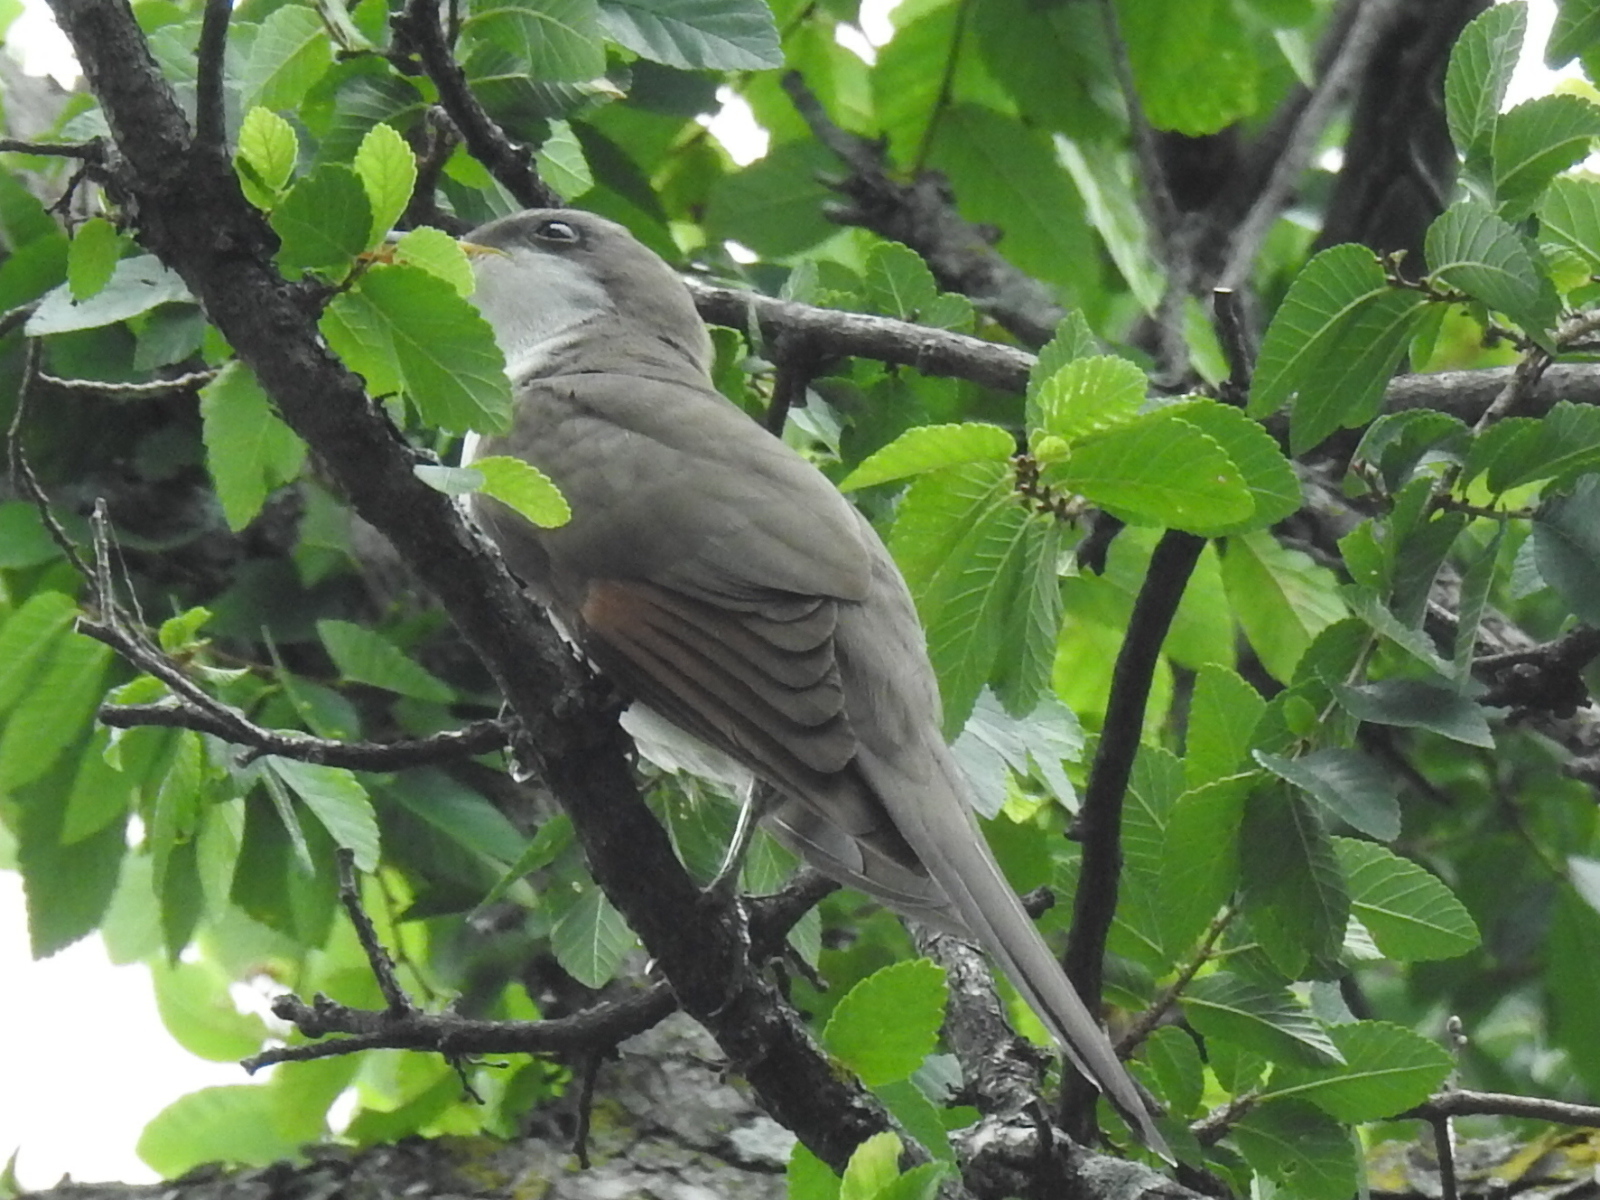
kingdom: Animalia
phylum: Chordata
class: Aves
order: Cuculiformes
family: Cuculidae
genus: Coccyzus
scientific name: Coccyzus americanus
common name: Yellow-billed cuckoo
